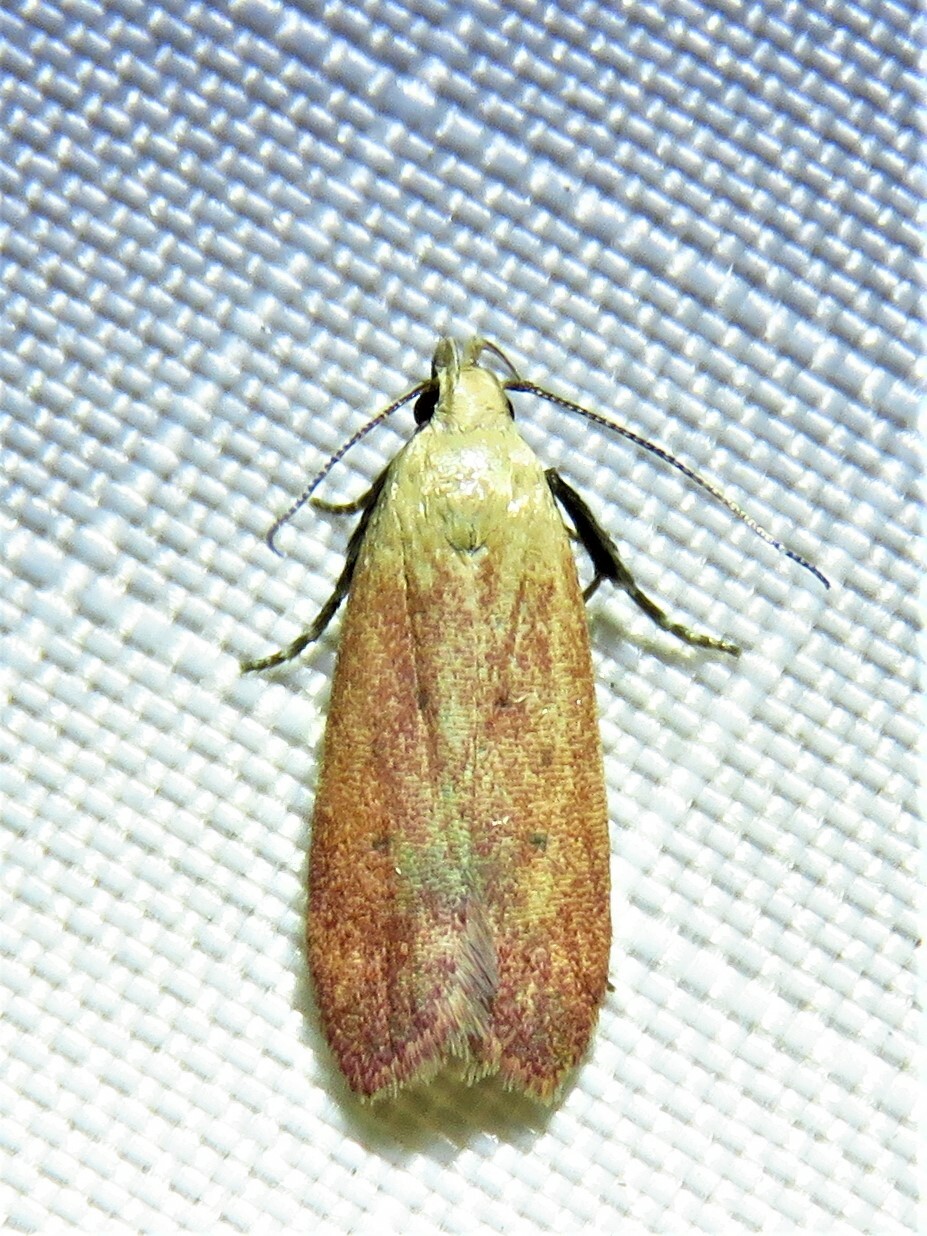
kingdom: Animalia
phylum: Arthropoda
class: Insecta
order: Lepidoptera
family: Gelechiidae
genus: Anacampsis
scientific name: Anacampsis fullonella
